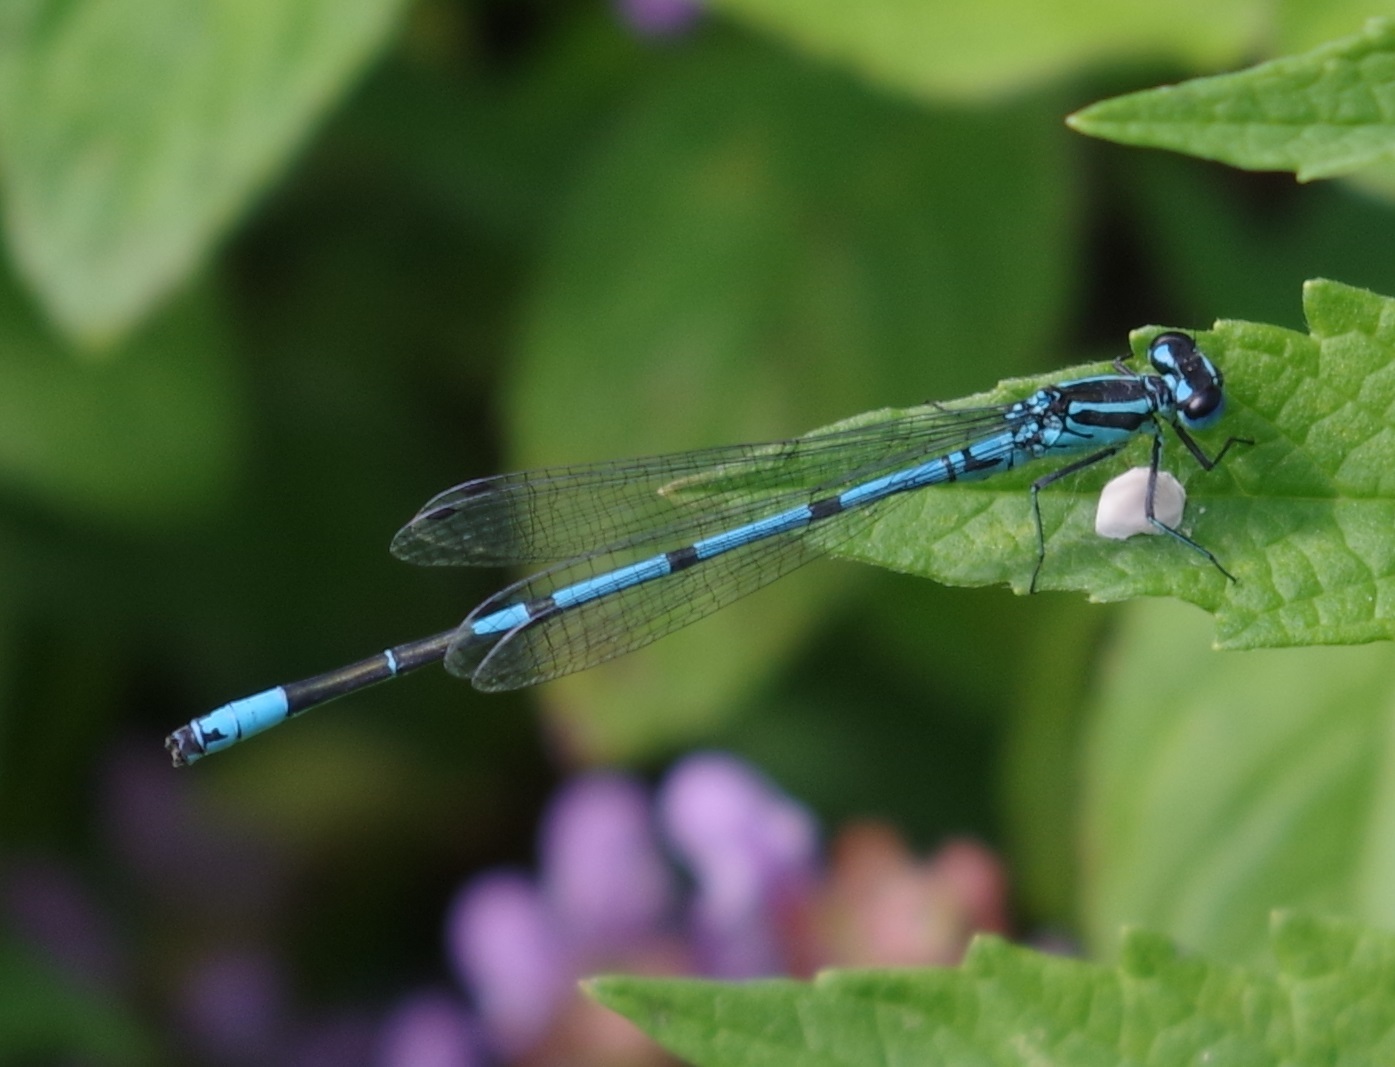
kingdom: Animalia
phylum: Arthropoda
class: Insecta
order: Odonata
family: Coenagrionidae
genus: Coenagrion
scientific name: Coenagrion puella
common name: Azure damselfly
